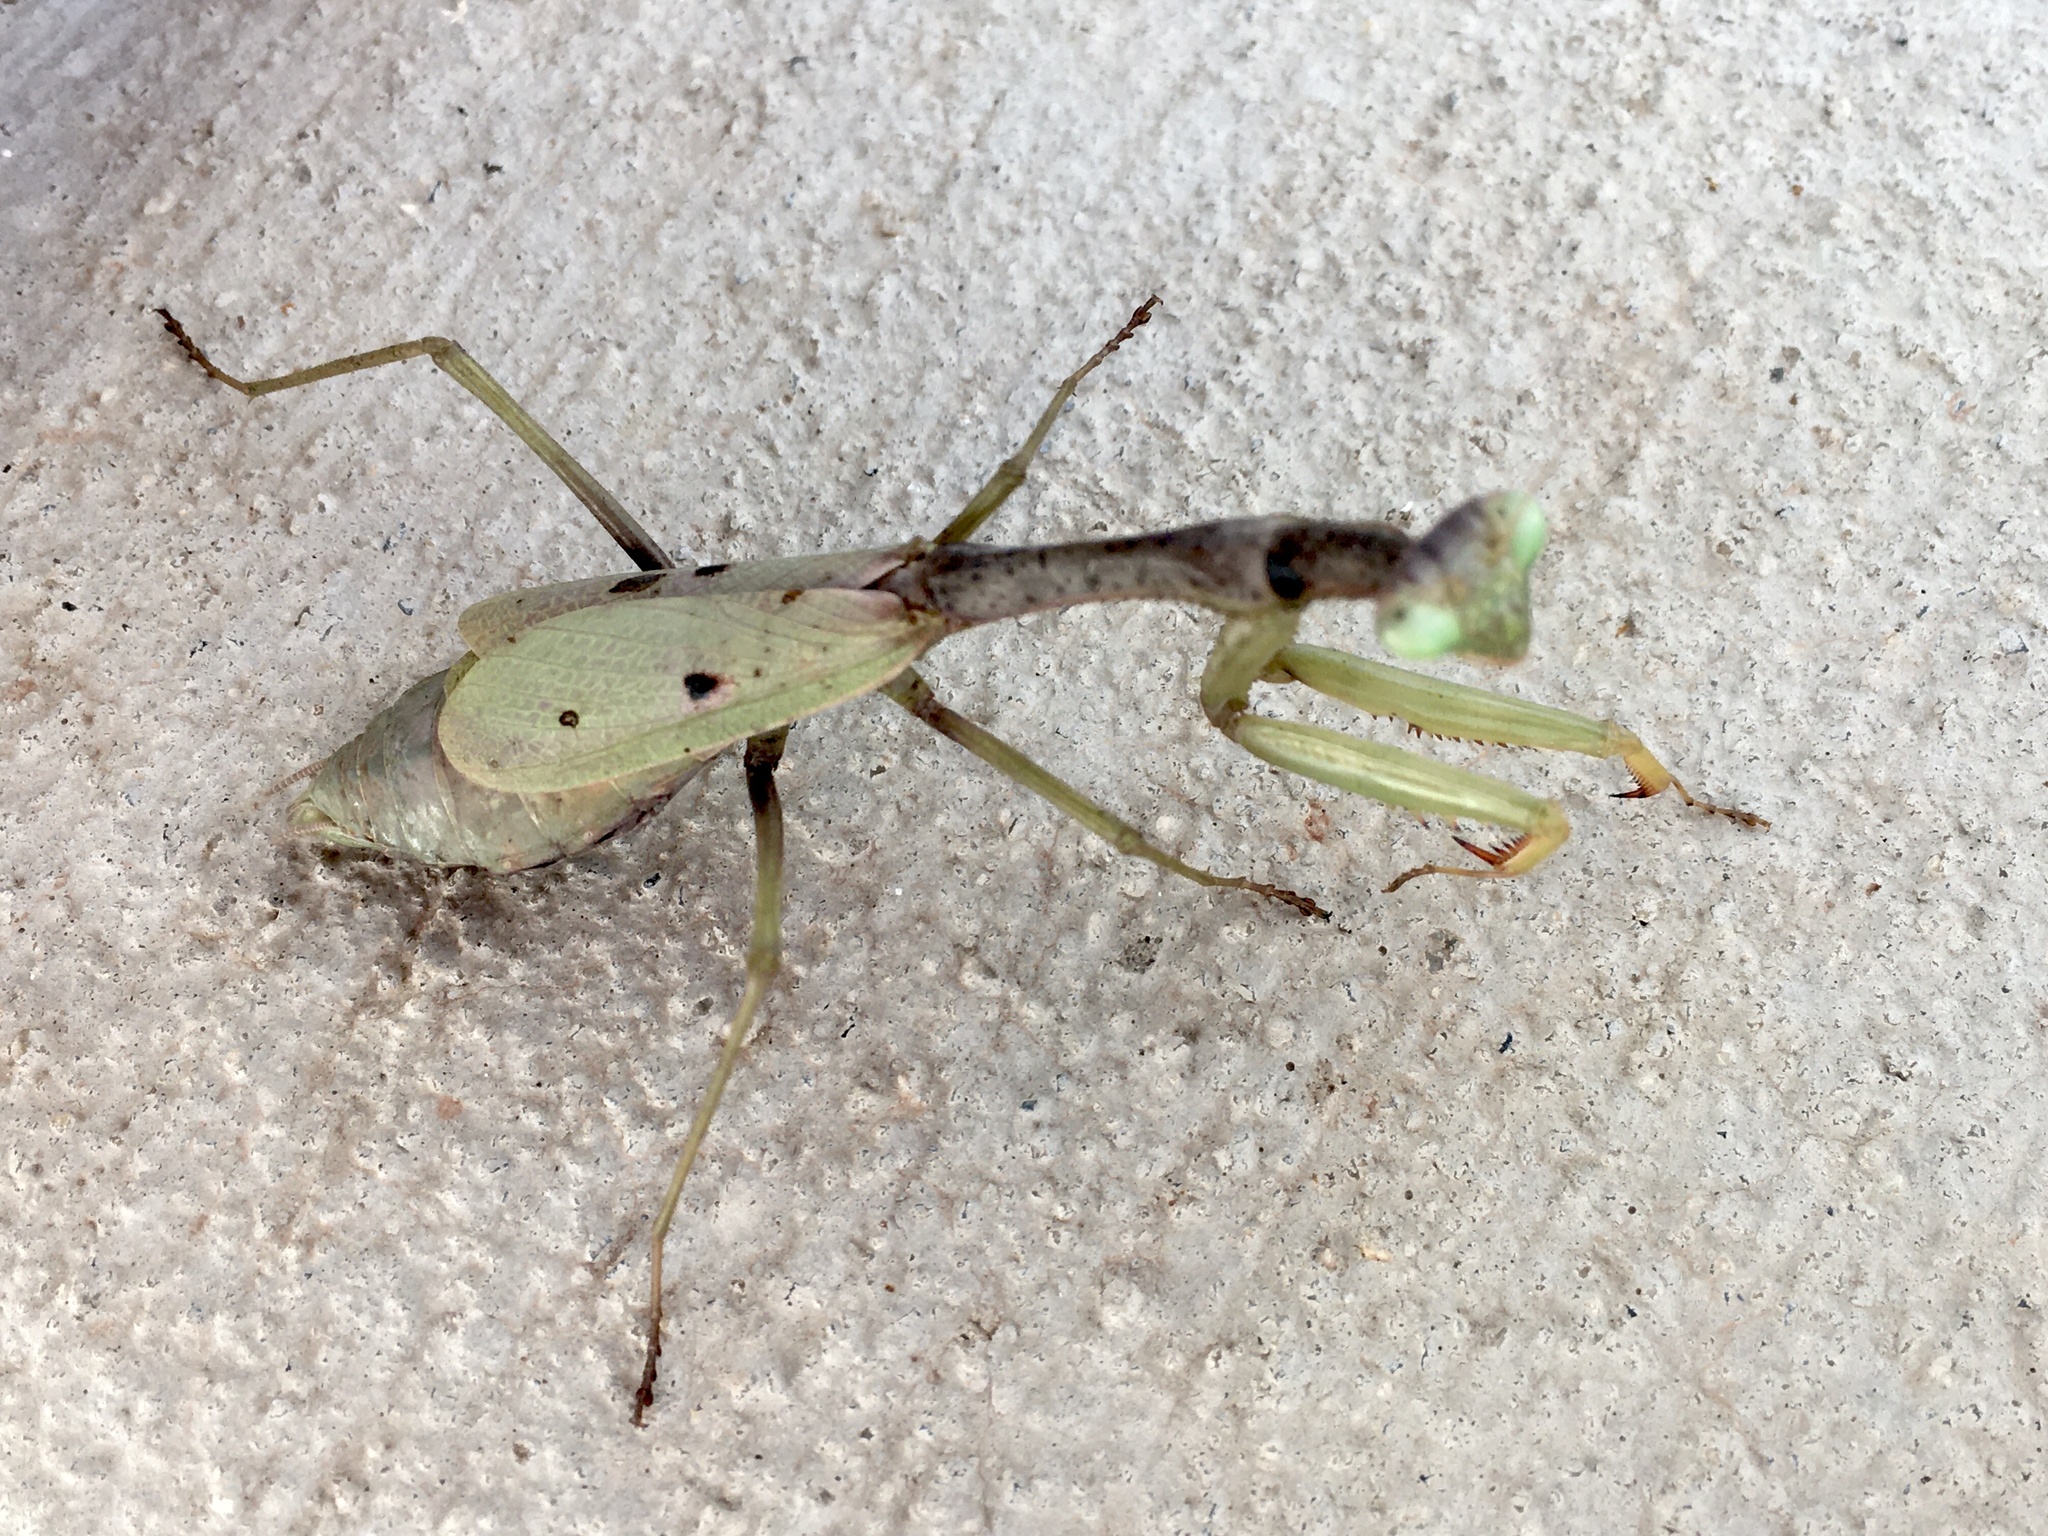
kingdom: Animalia
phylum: Arthropoda
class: Insecta
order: Mantodea
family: Mantidae
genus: Stagmomantis
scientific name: Stagmomantis carolina
